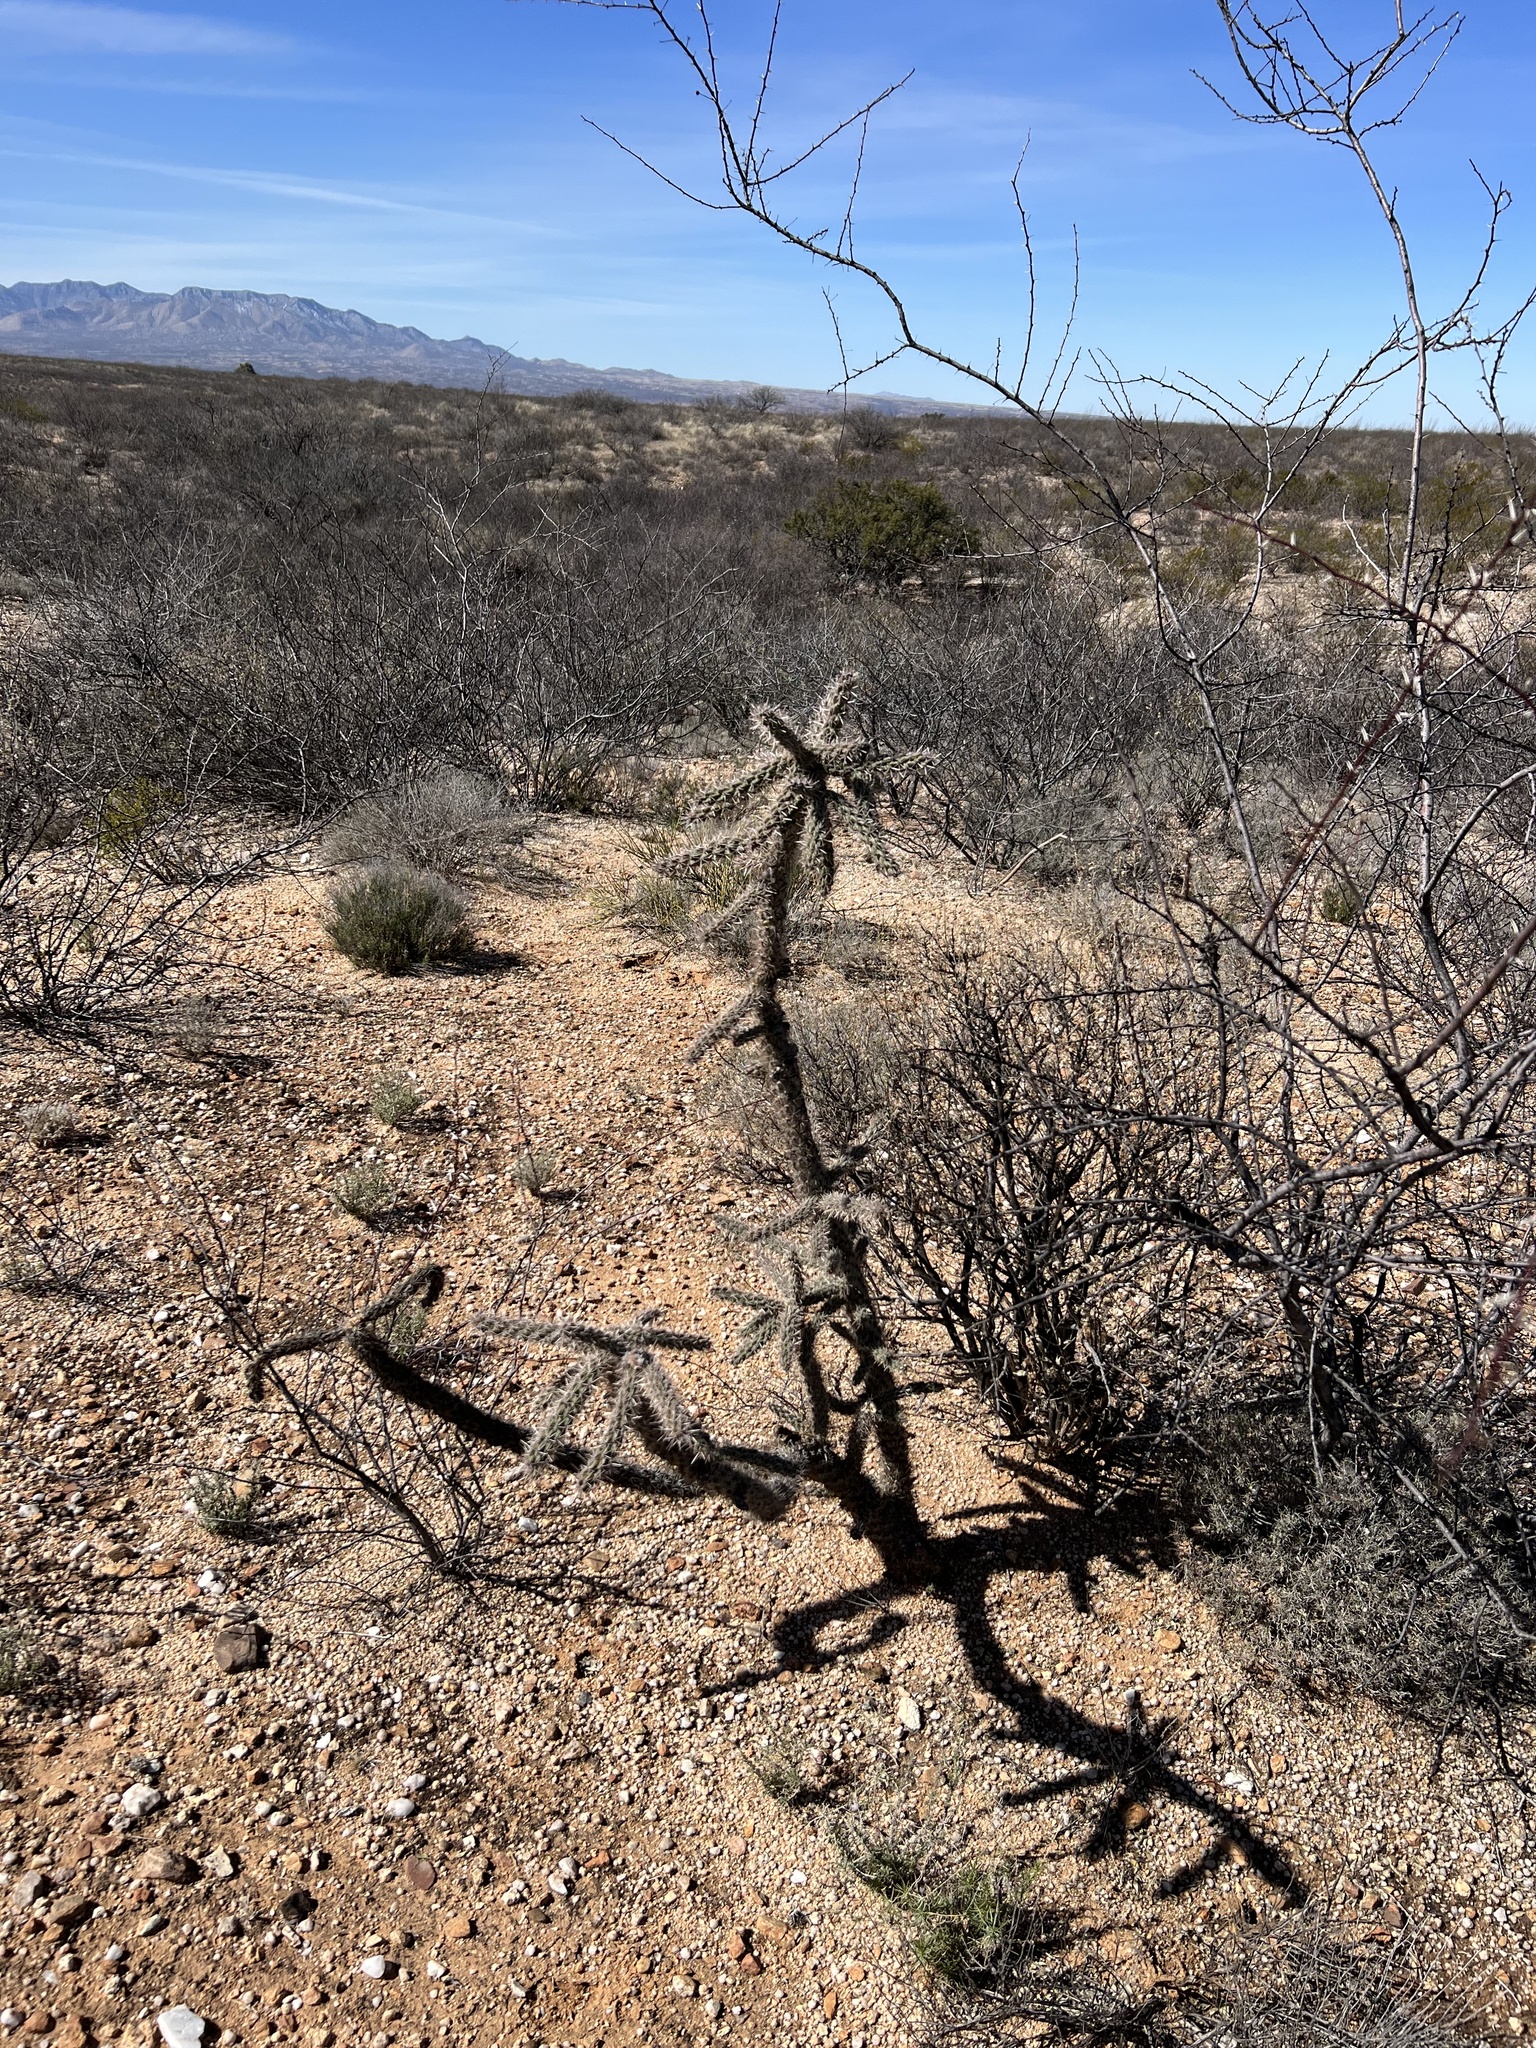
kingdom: Plantae
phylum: Tracheophyta
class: Magnoliopsida
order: Caryophyllales
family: Cactaceae
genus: Cylindropuntia
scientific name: Cylindropuntia imbricata
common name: Candelabrum cactus
